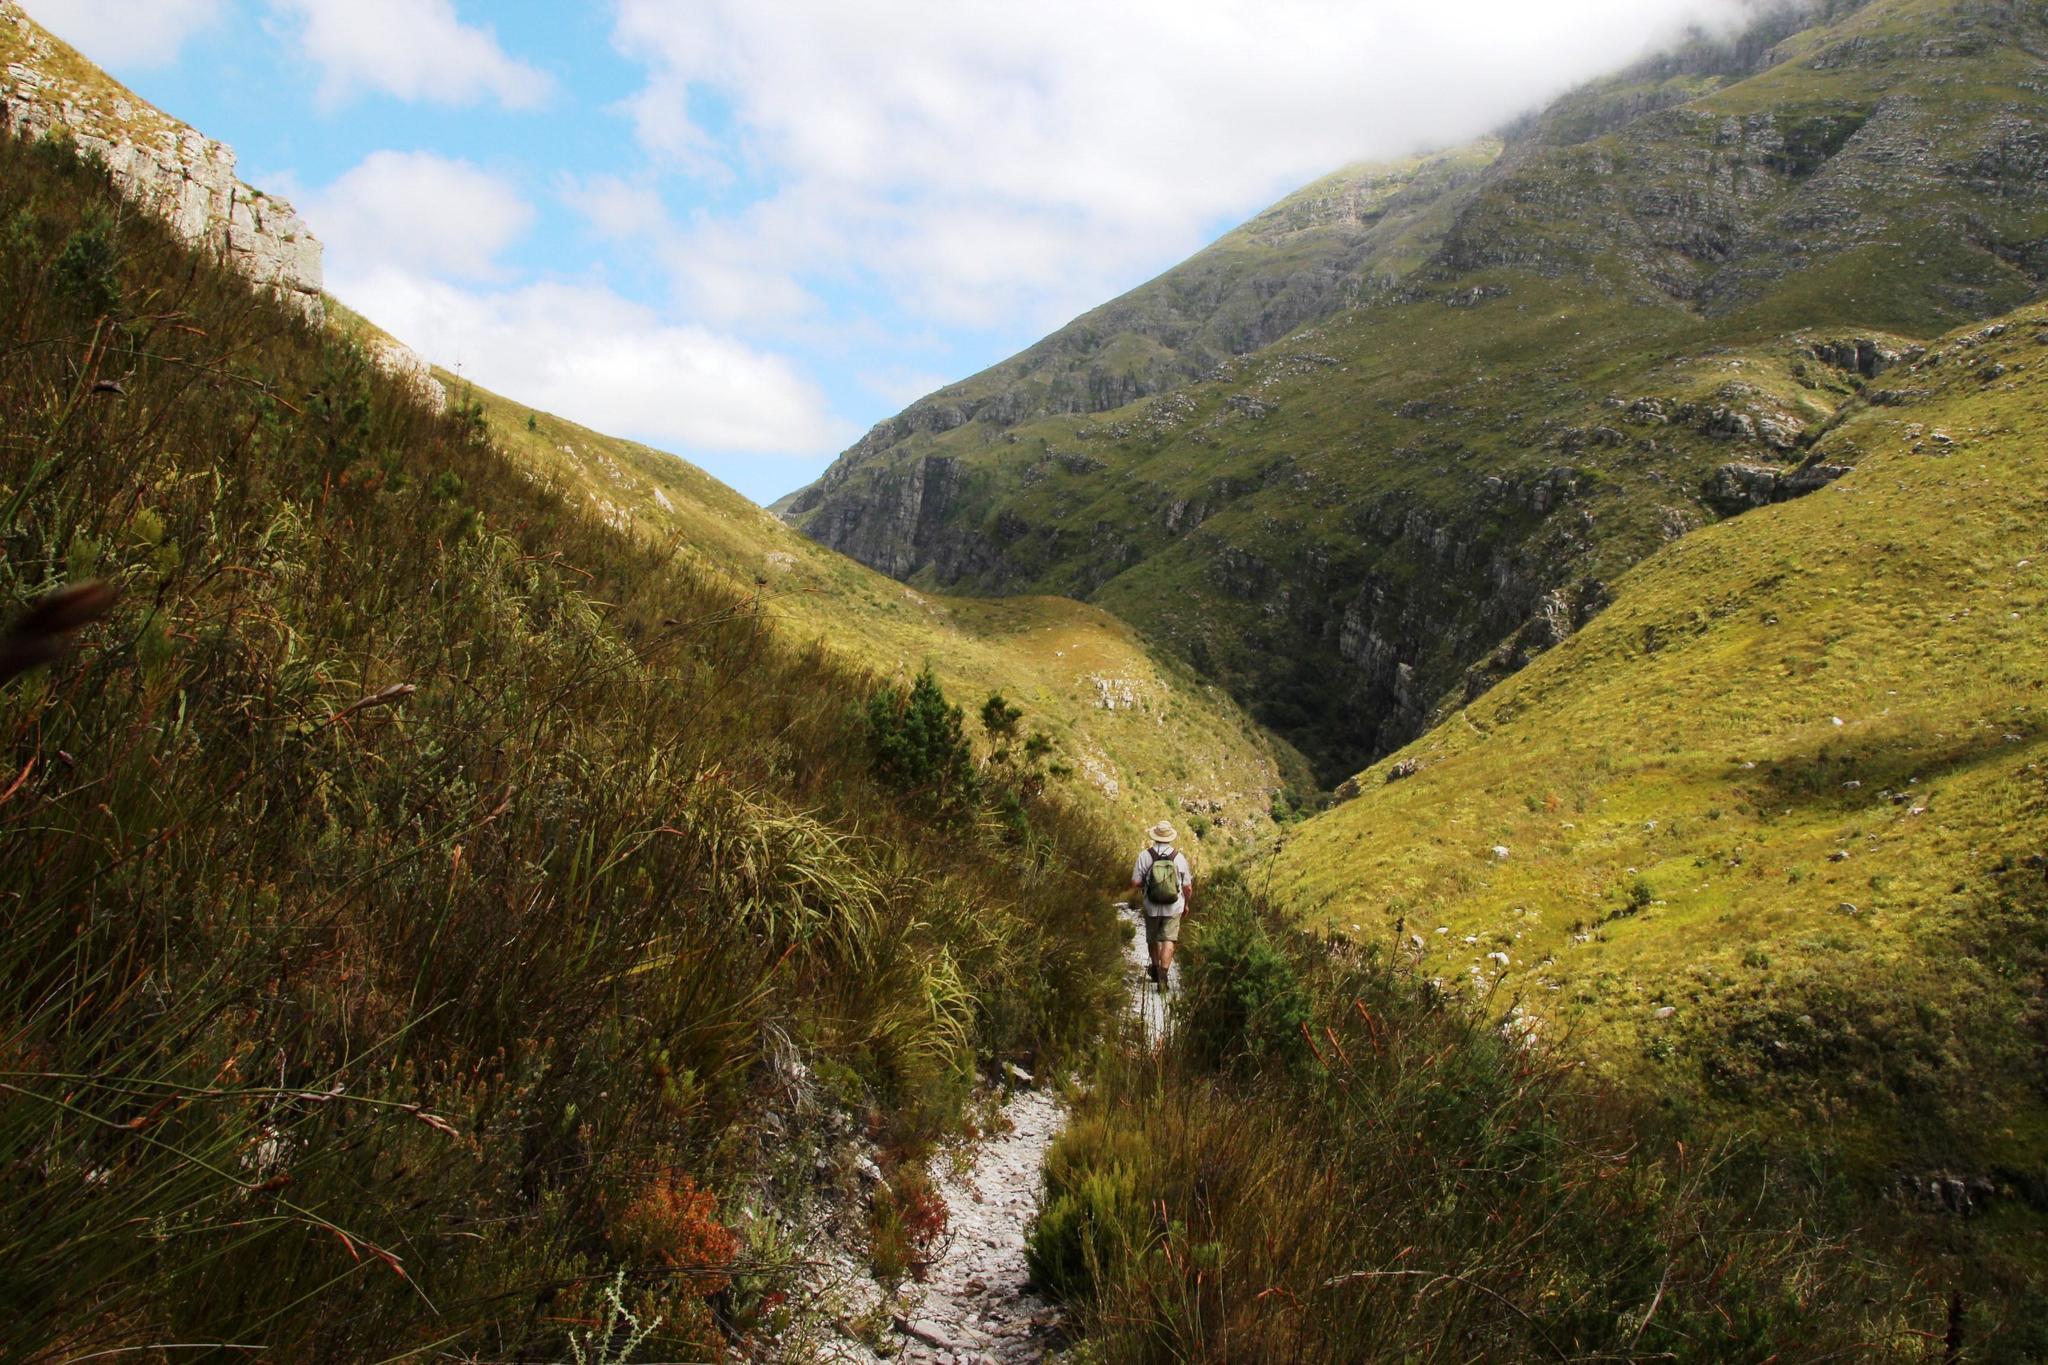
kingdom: Plantae
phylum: Tracheophyta
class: Pinopsida
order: Pinales
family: Cupressaceae
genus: Widdringtonia
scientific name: Widdringtonia nodiflora
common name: Cape cypress
